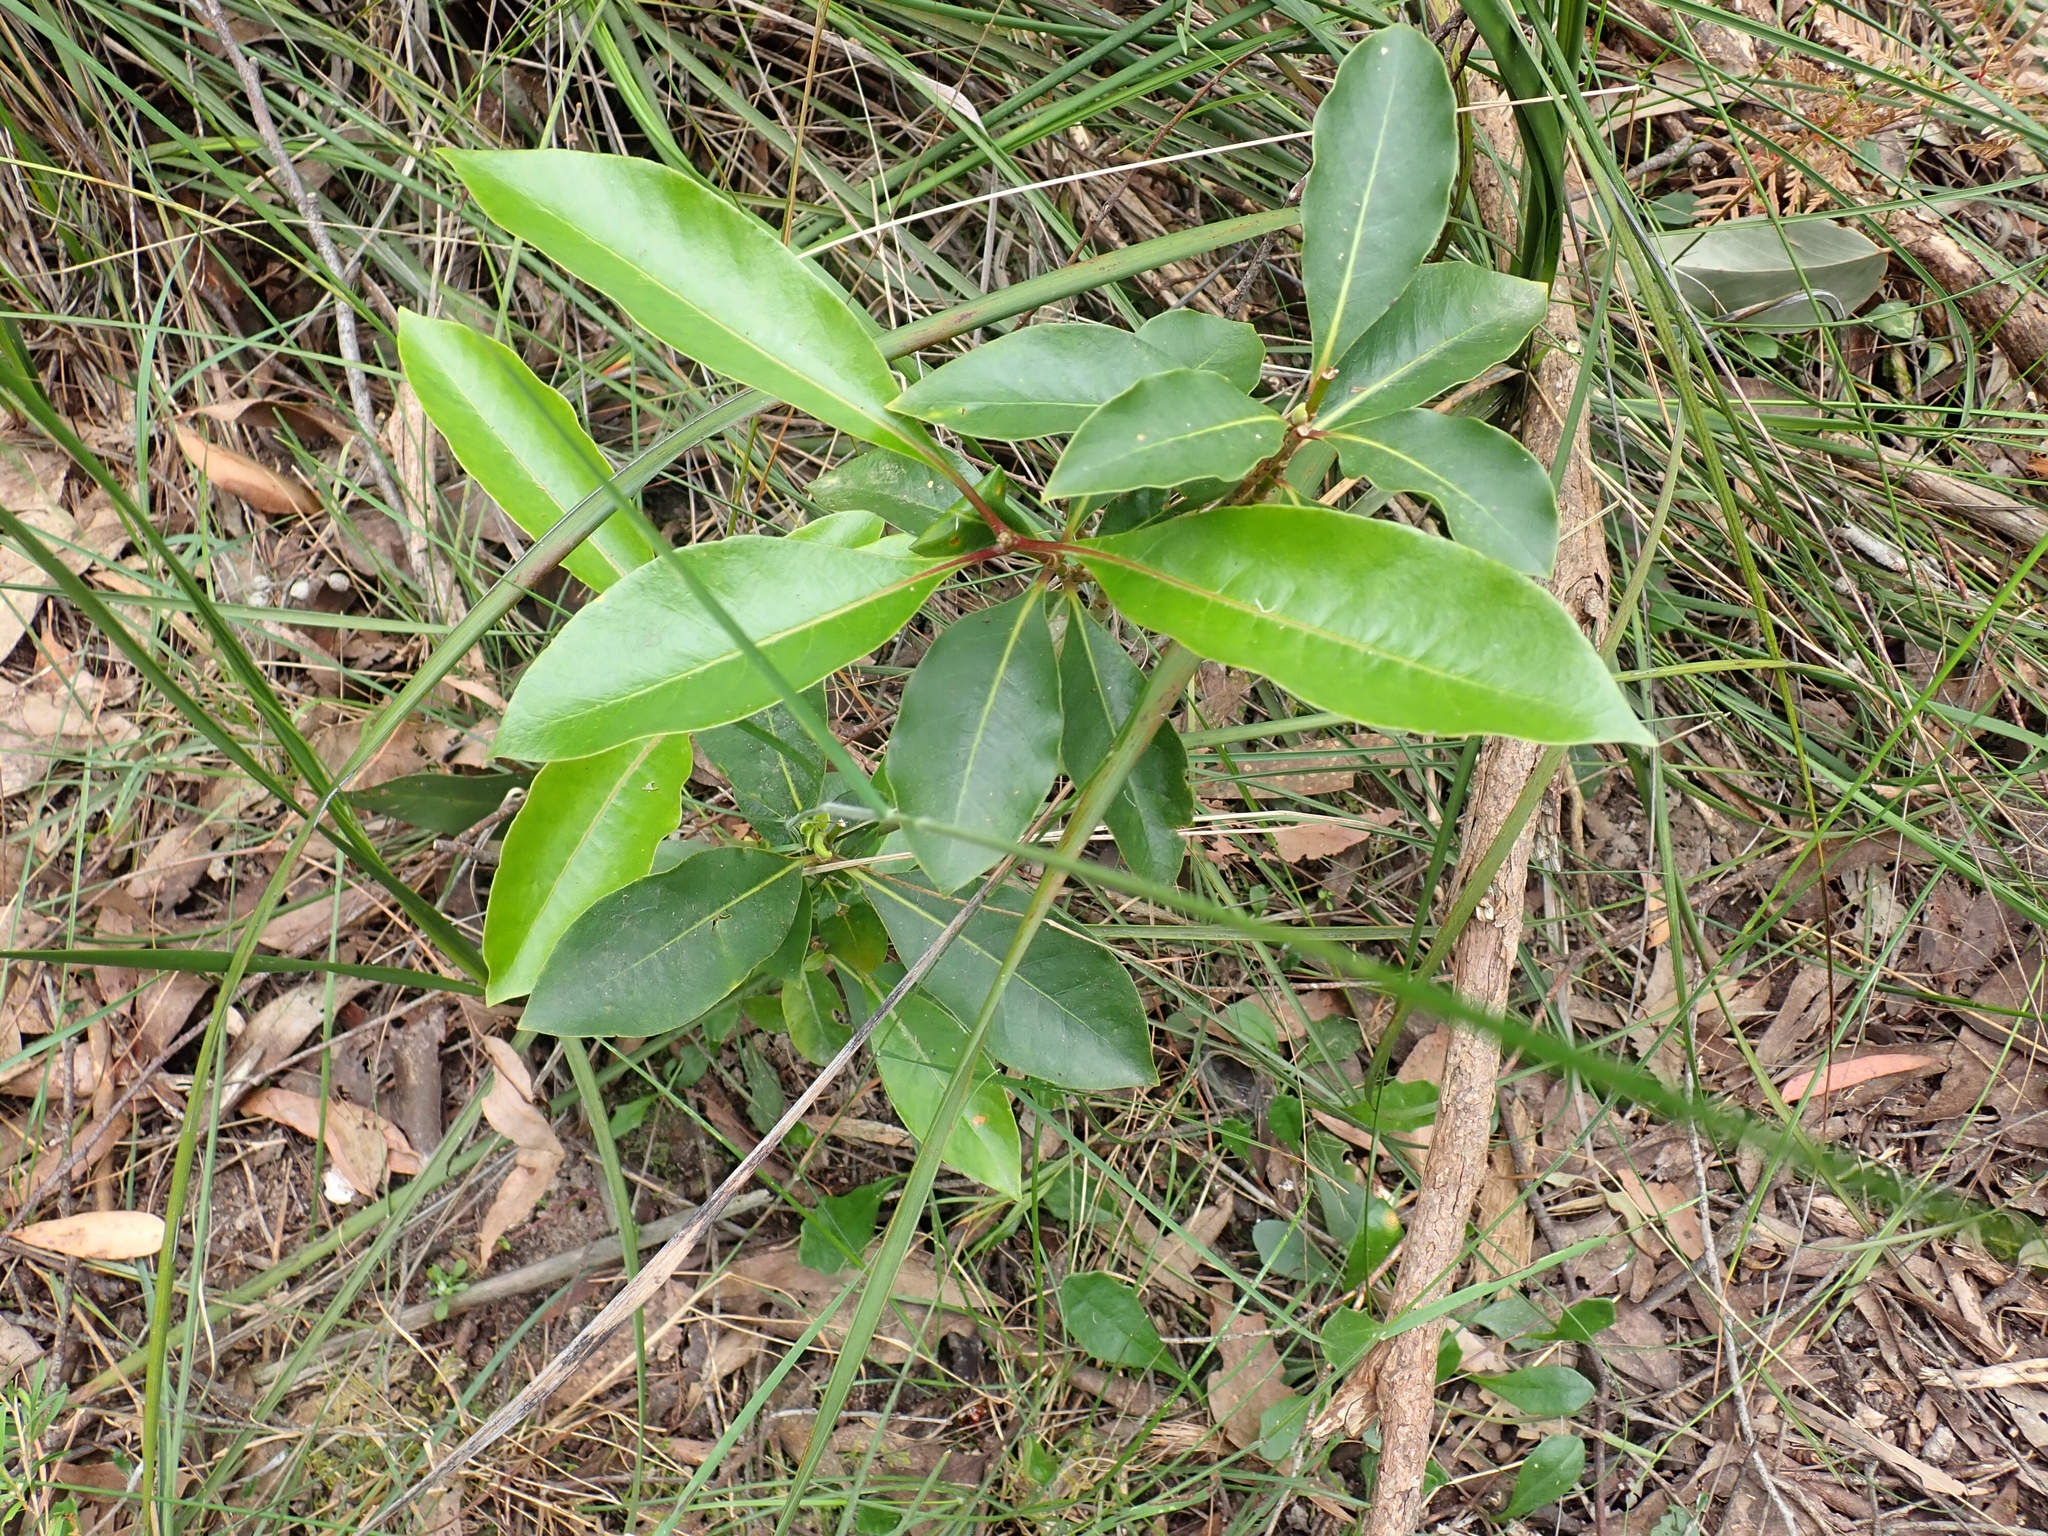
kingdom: Plantae
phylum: Tracheophyta
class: Magnoliopsida
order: Apiales
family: Pittosporaceae
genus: Pittosporum
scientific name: Pittosporum undulatum
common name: Australian cheesewood
